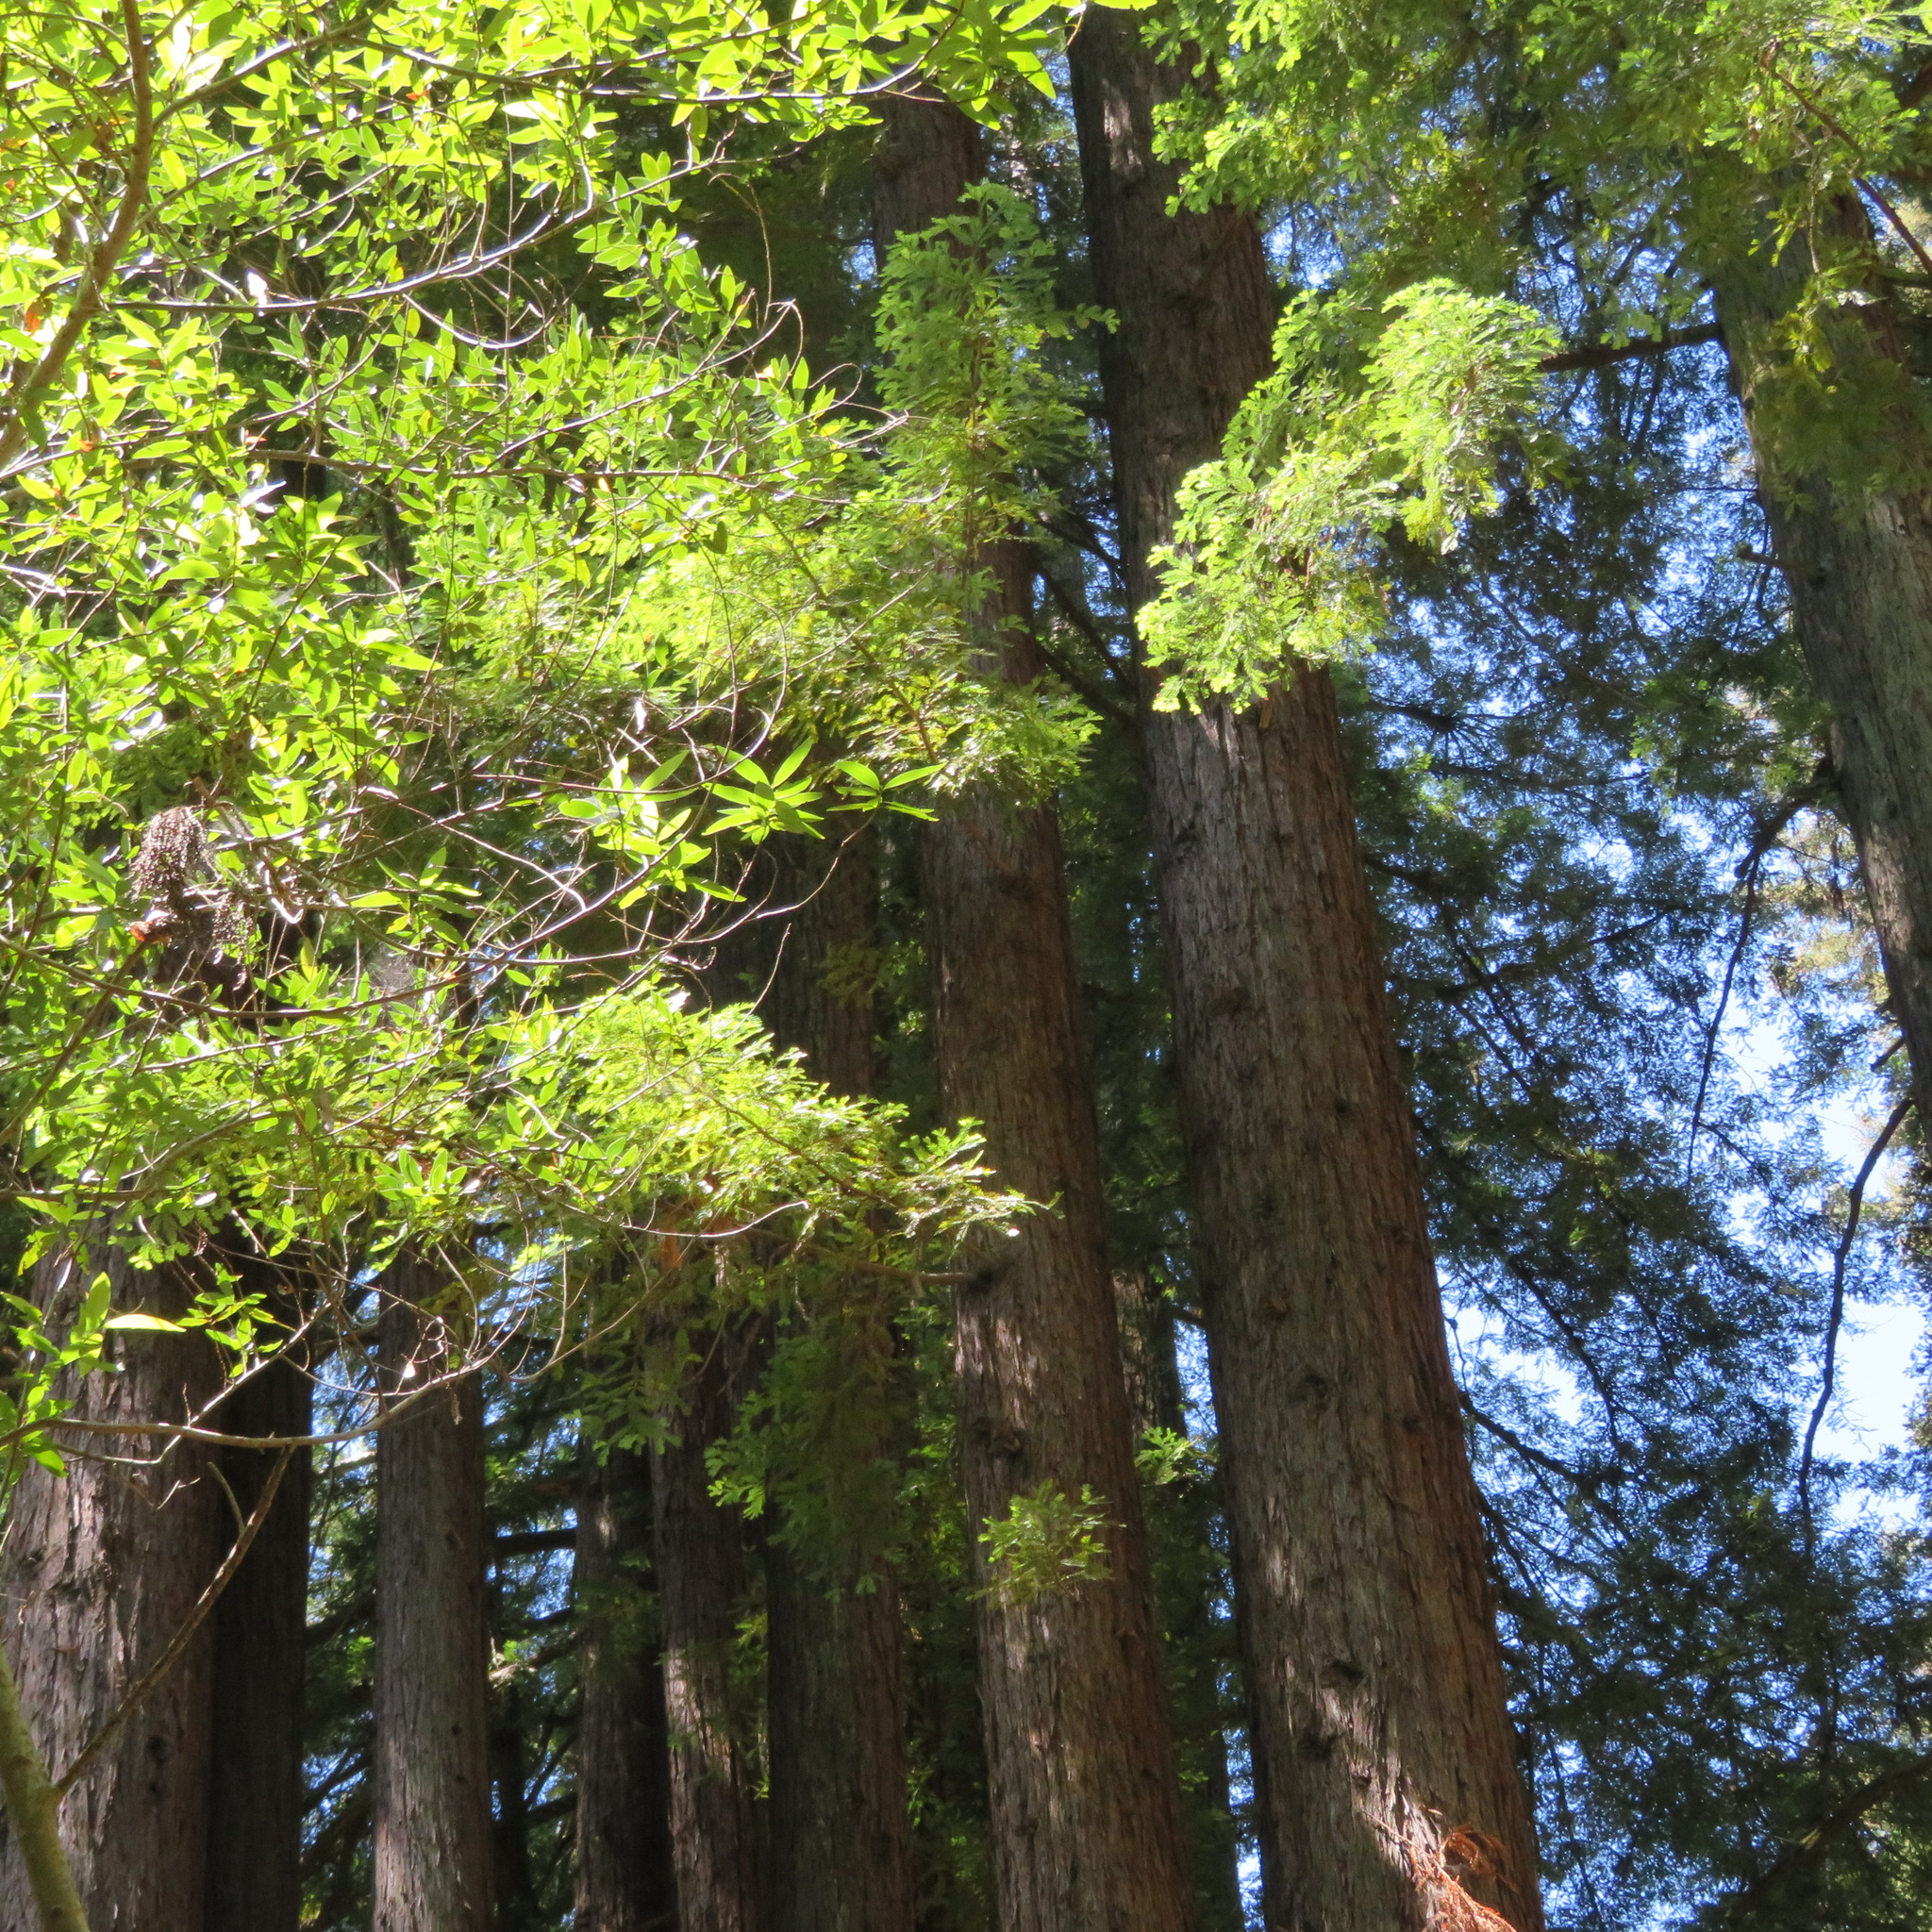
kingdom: Plantae
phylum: Tracheophyta
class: Pinopsida
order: Pinales
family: Cupressaceae
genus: Sequoia
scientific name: Sequoia sempervirens
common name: Coast redwood
